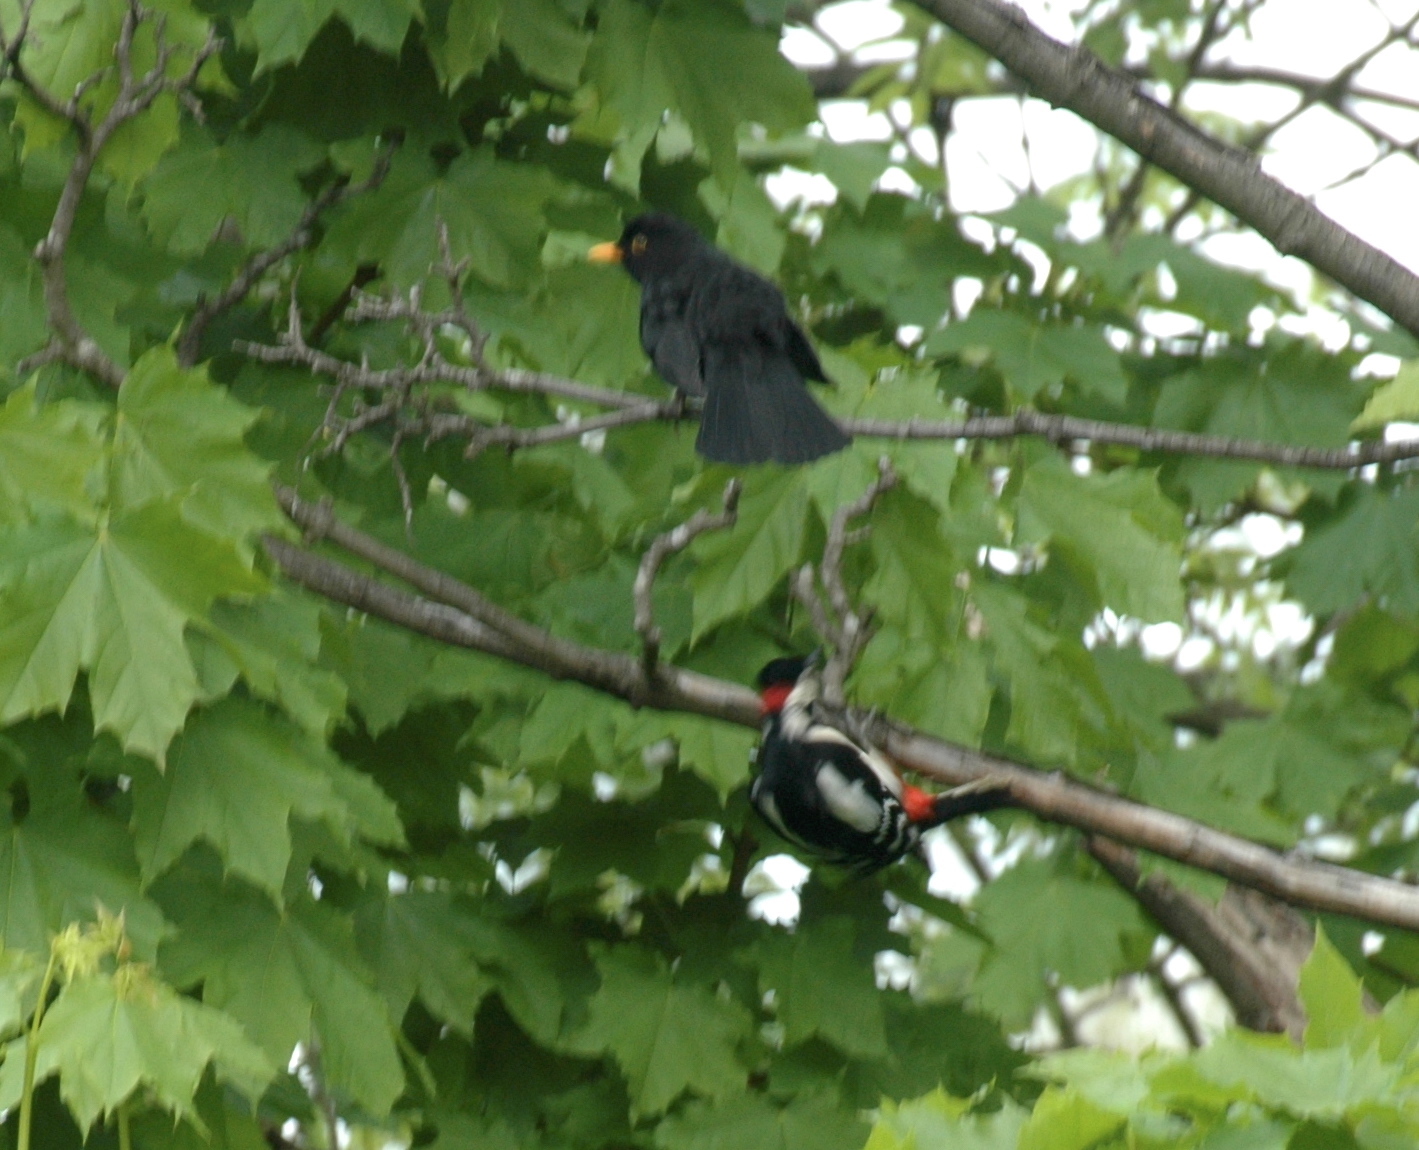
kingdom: Animalia
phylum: Chordata
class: Aves
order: Piciformes
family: Picidae
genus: Dendrocopos
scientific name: Dendrocopos major
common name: Great spotted woodpecker
